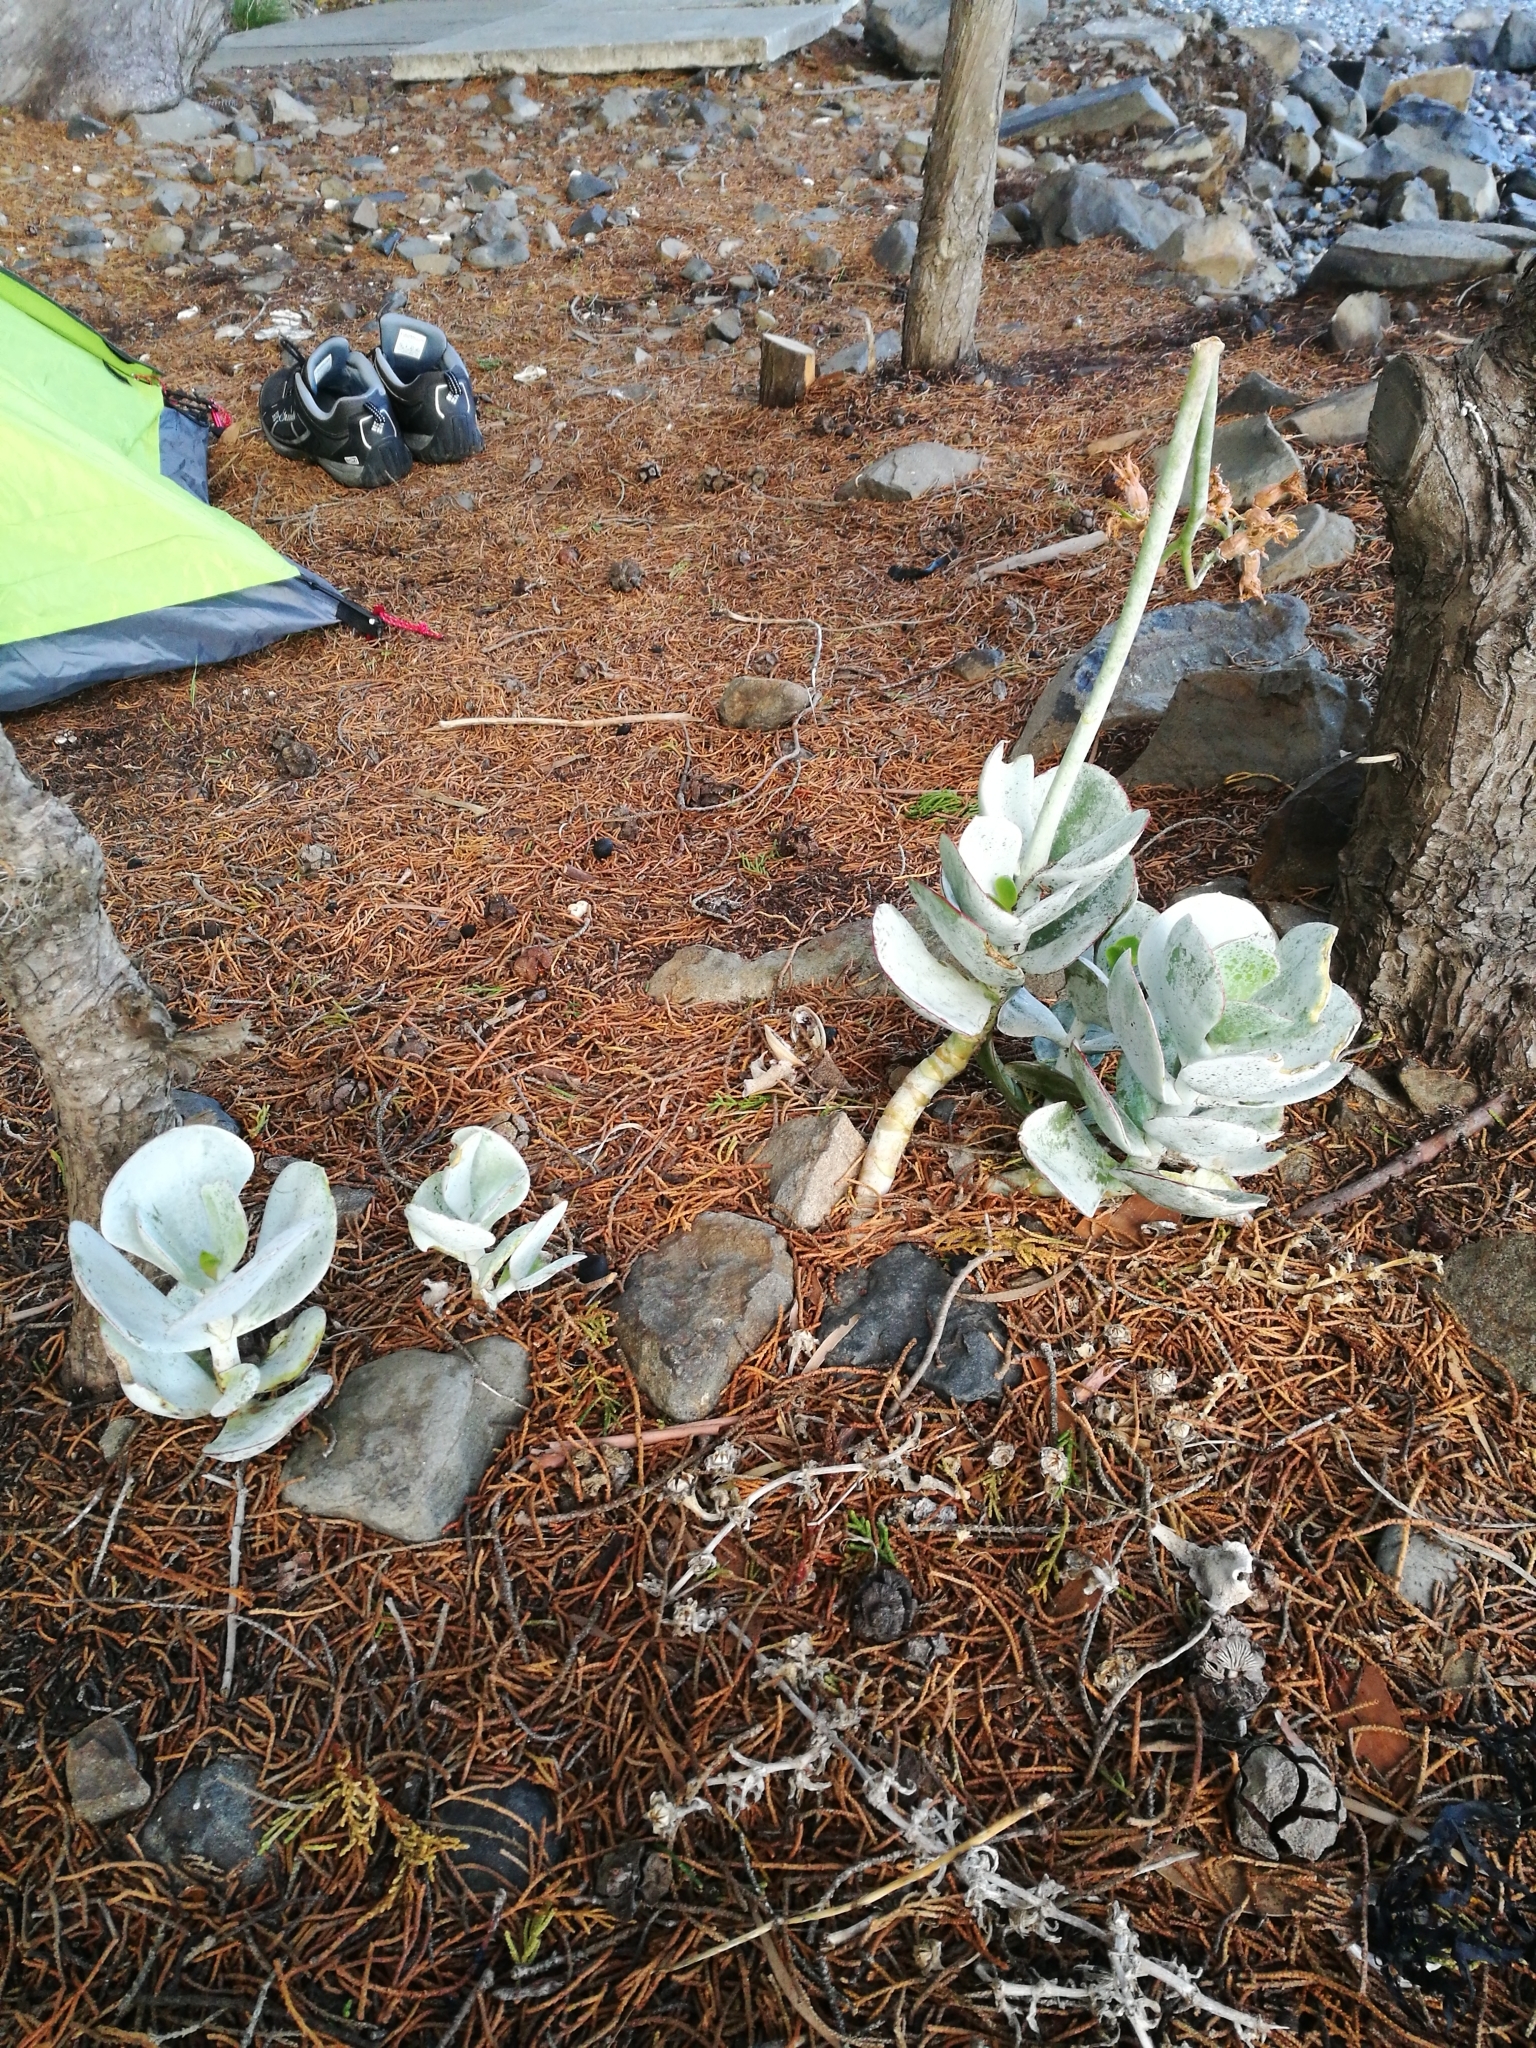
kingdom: Plantae
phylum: Tracheophyta
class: Magnoliopsida
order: Saxifragales
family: Crassulaceae
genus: Cotyledon
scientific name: Cotyledon orbiculata
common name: Pig's ear
